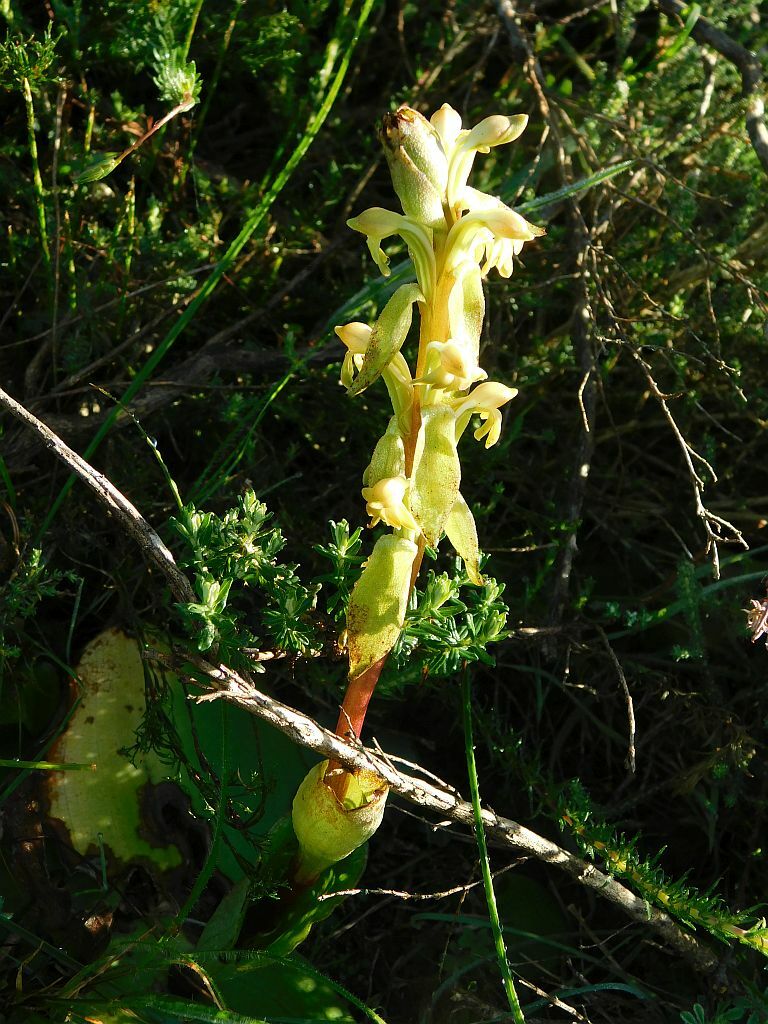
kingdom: Plantae
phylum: Tracheophyta
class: Liliopsida
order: Asparagales
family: Orchidaceae
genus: Satyrium
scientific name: Satyrium bicorne
